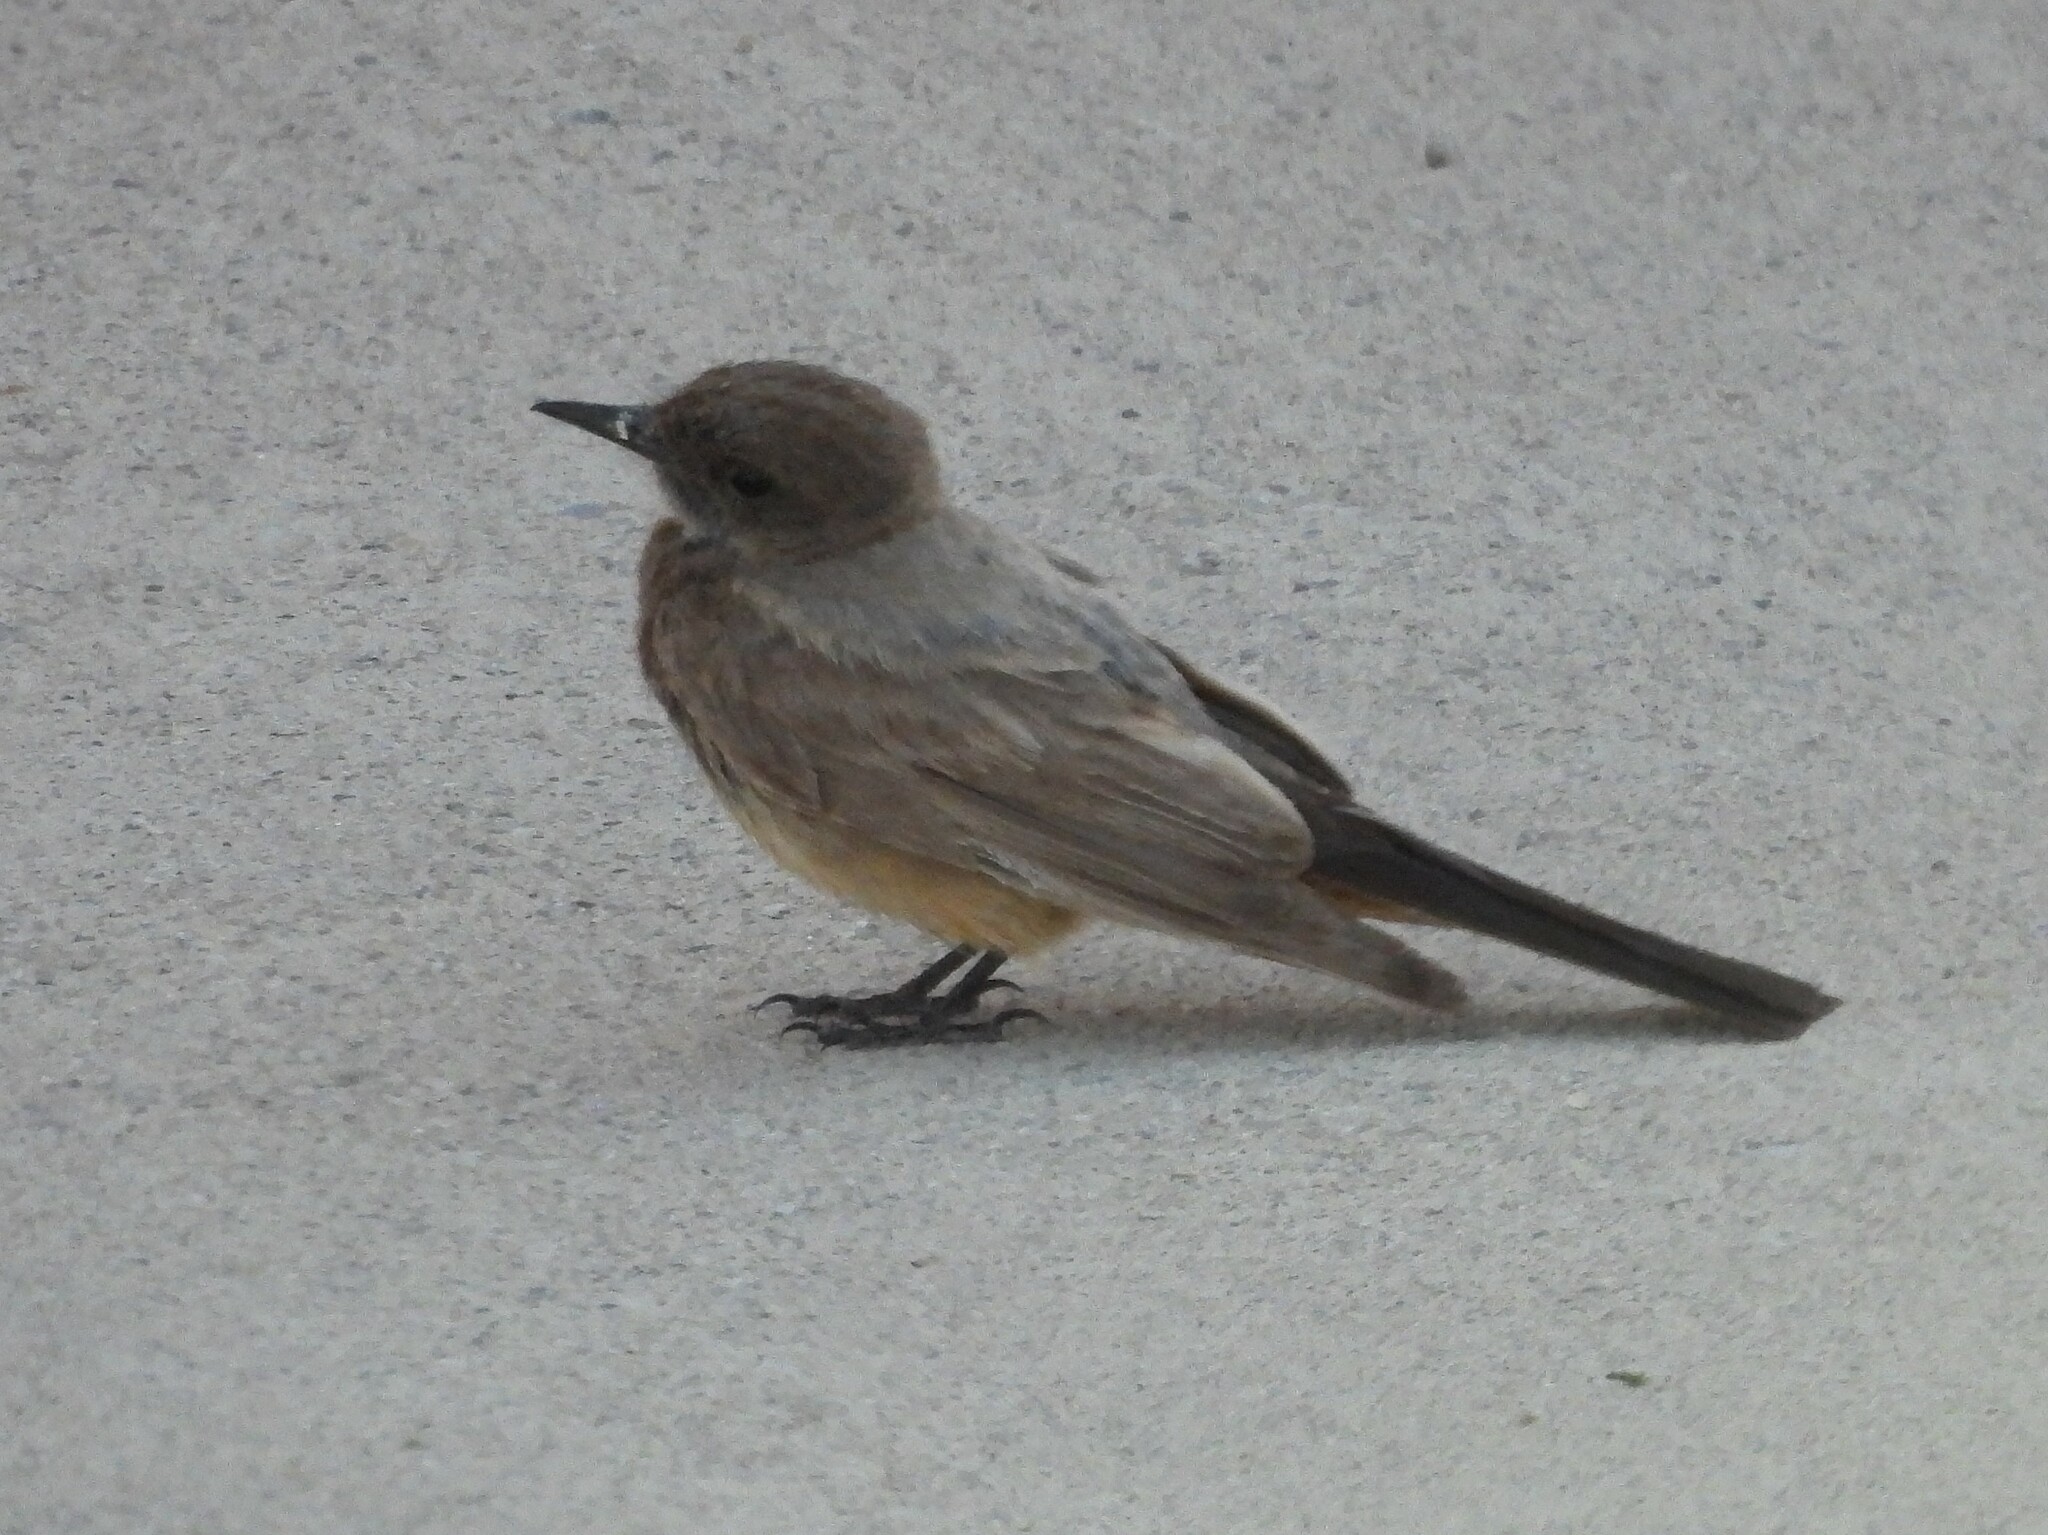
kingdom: Animalia
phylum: Chordata
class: Aves
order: Passeriformes
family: Tyrannidae
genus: Sayornis
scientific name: Sayornis saya
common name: Say's phoebe
